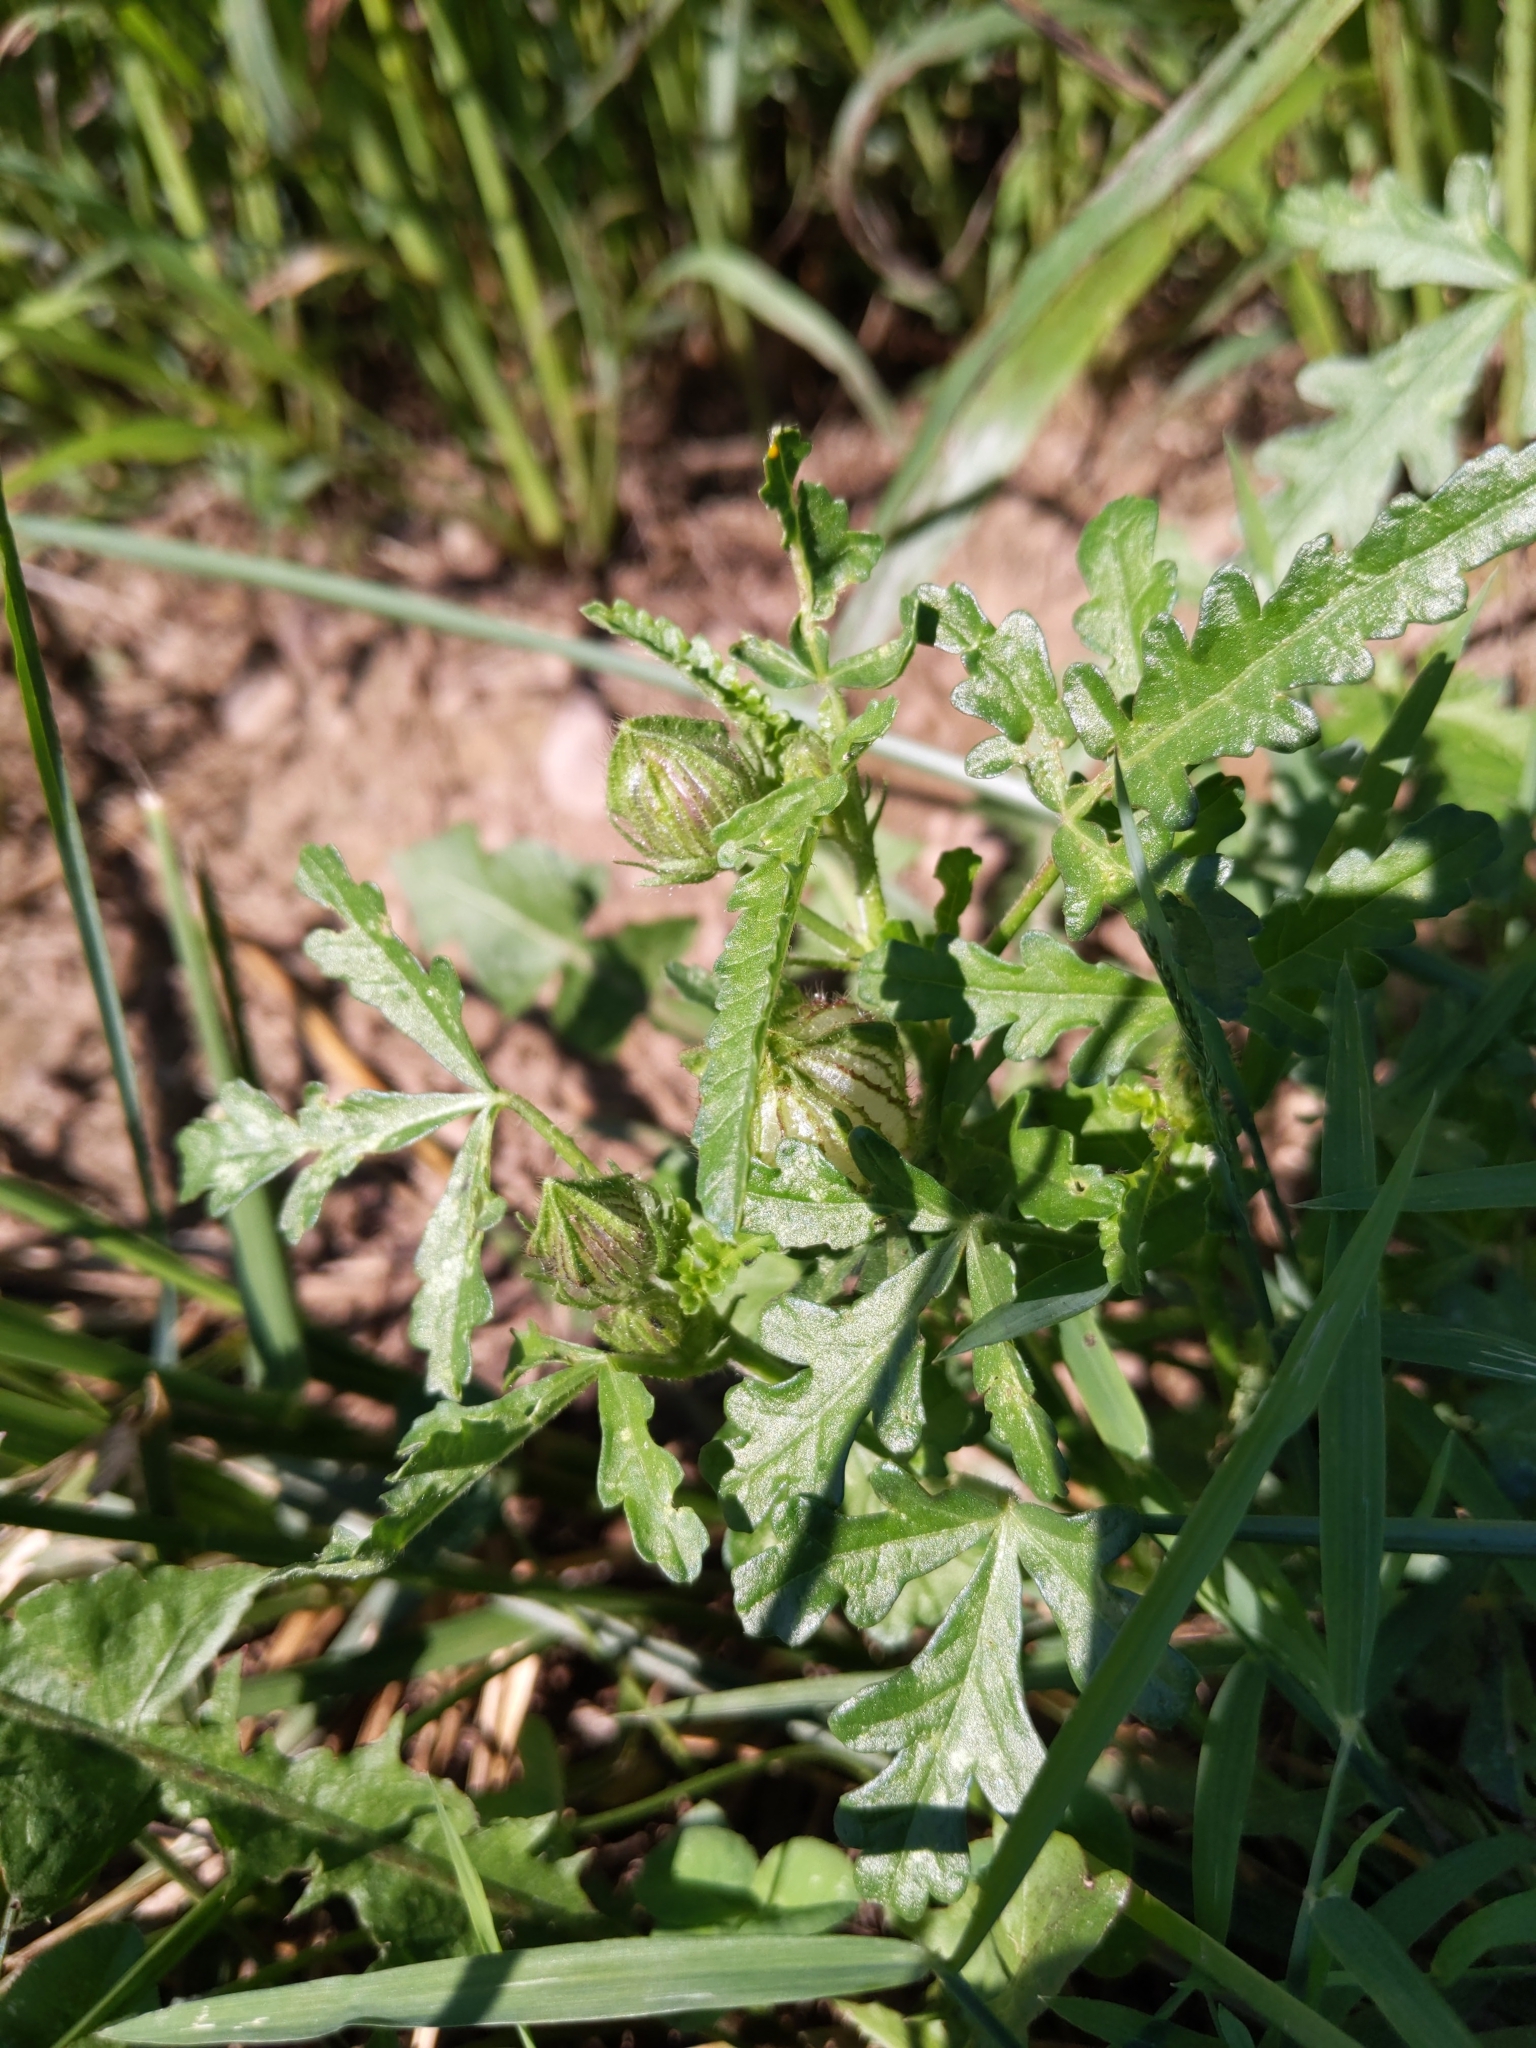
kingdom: Plantae
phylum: Tracheophyta
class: Magnoliopsida
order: Malvales
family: Malvaceae
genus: Hibiscus
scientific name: Hibiscus trionum
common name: Bladder ketmia
